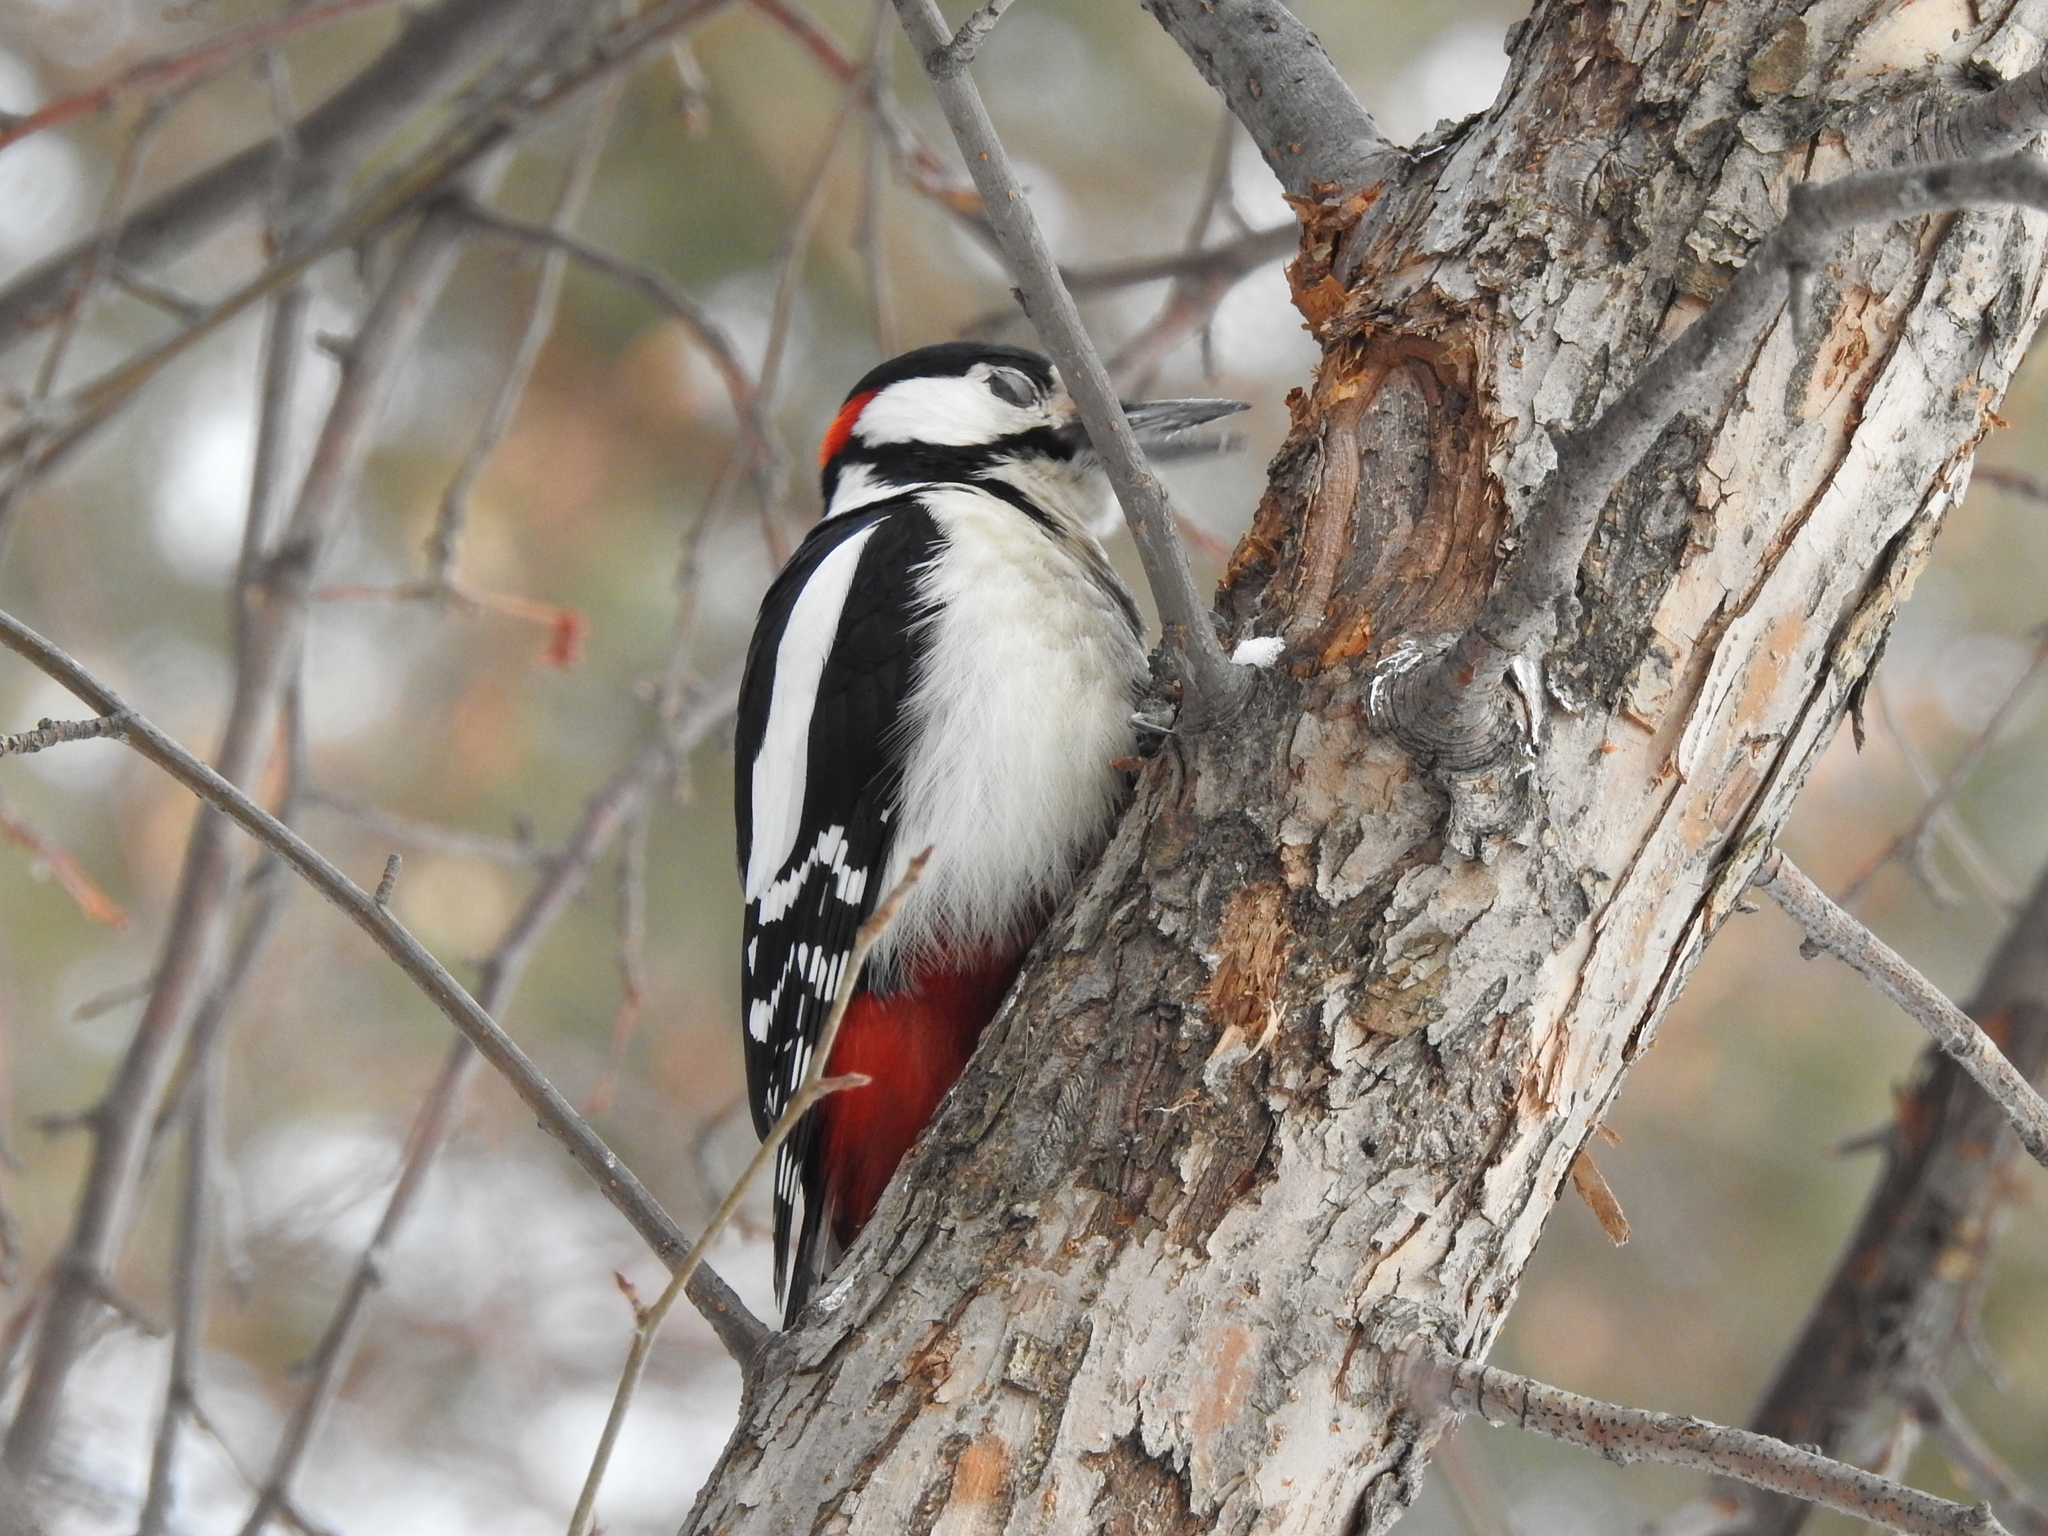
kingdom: Animalia
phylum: Chordata
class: Aves
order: Piciformes
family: Picidae
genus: Dendrocopos
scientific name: Dendrocopos major
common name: Great spotted woodpecker
